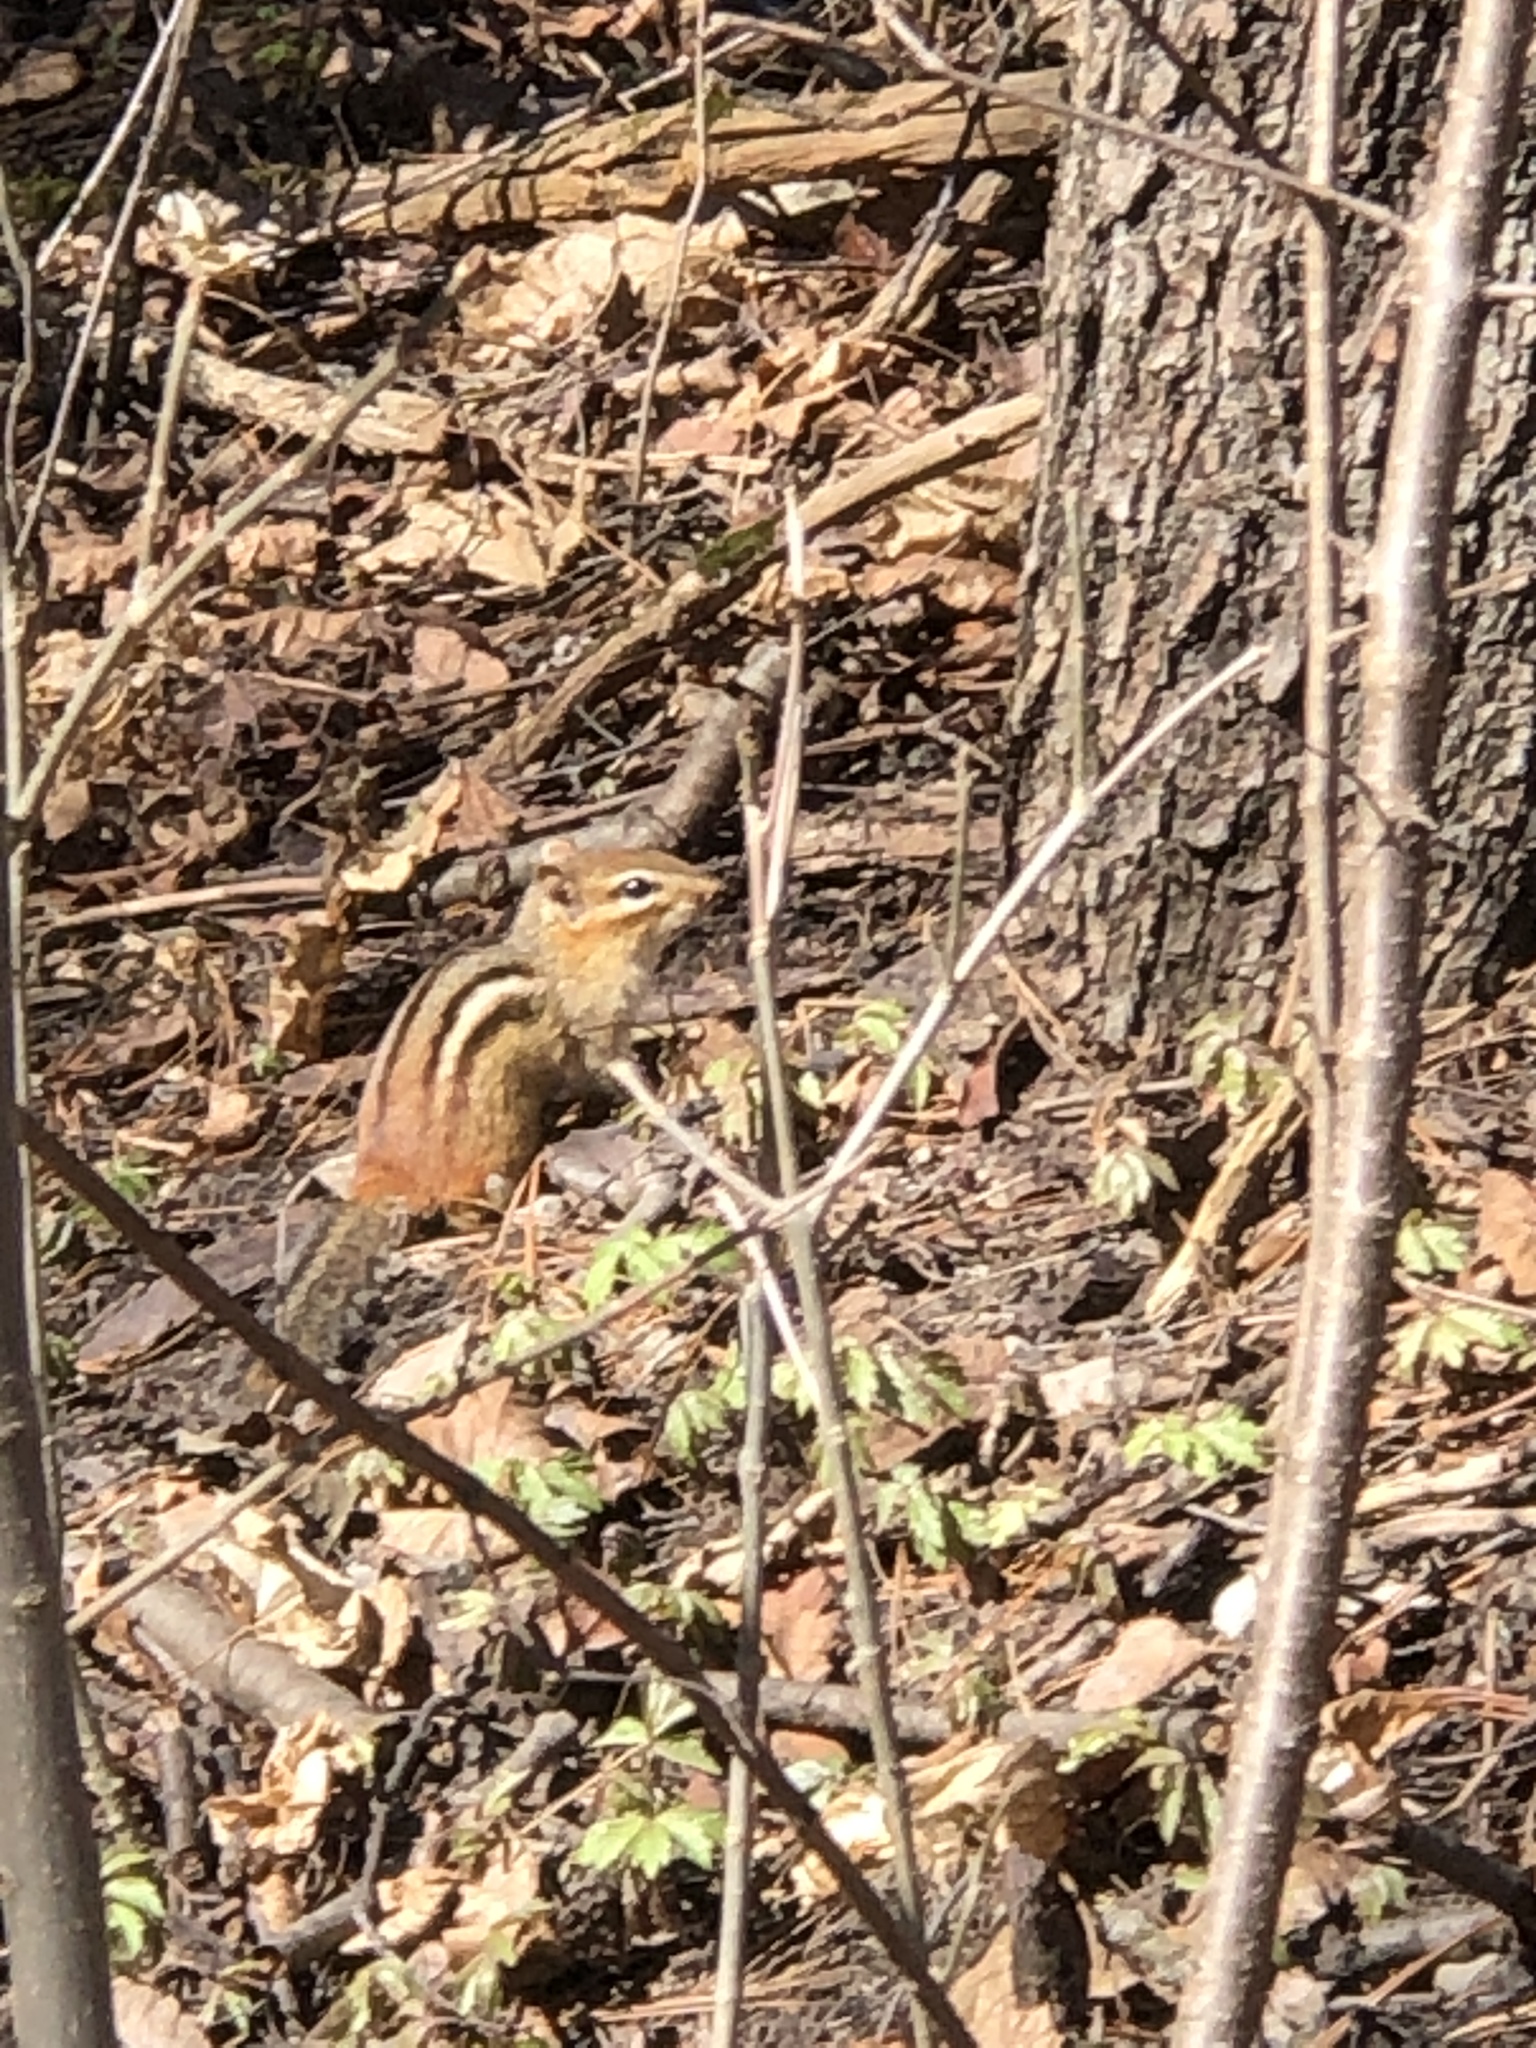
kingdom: Animalia
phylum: Chordata
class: Mammalia
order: Rodentia
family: Sciuridae
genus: Tamias
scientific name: Tamias striatus
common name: Eastern chipmunk
